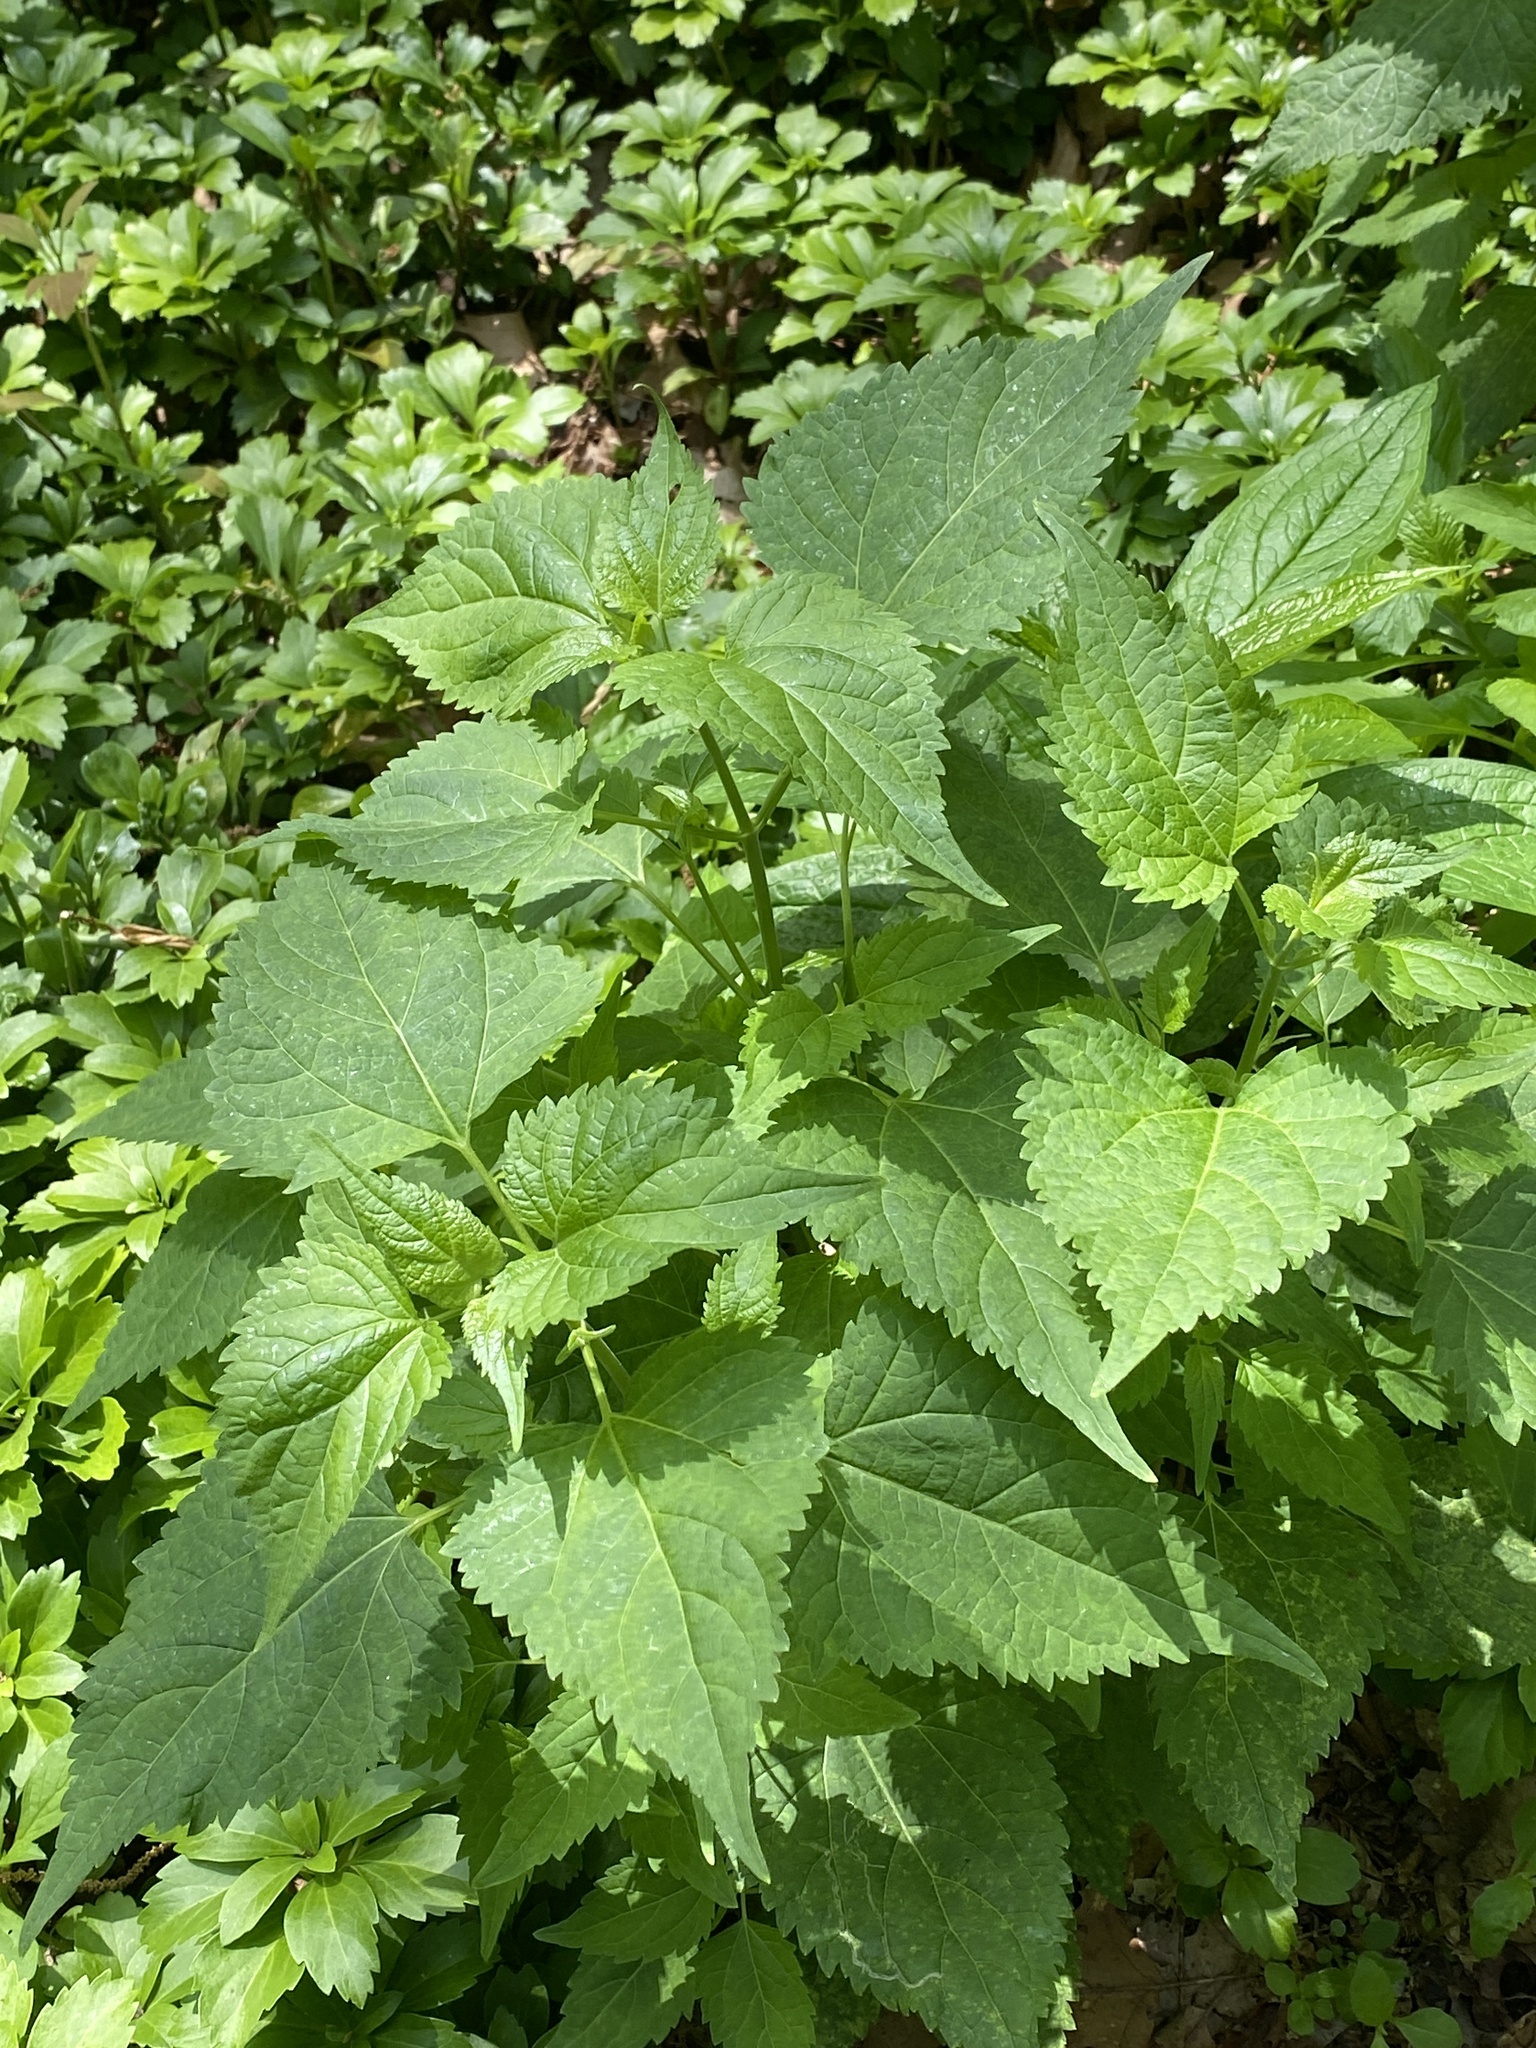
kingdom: Plantae
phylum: Tracheophyta
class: Magnoliopsida
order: Asterales
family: Asteraceae
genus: Ageratina
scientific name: Ageratina altissima
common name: White snakeroot
